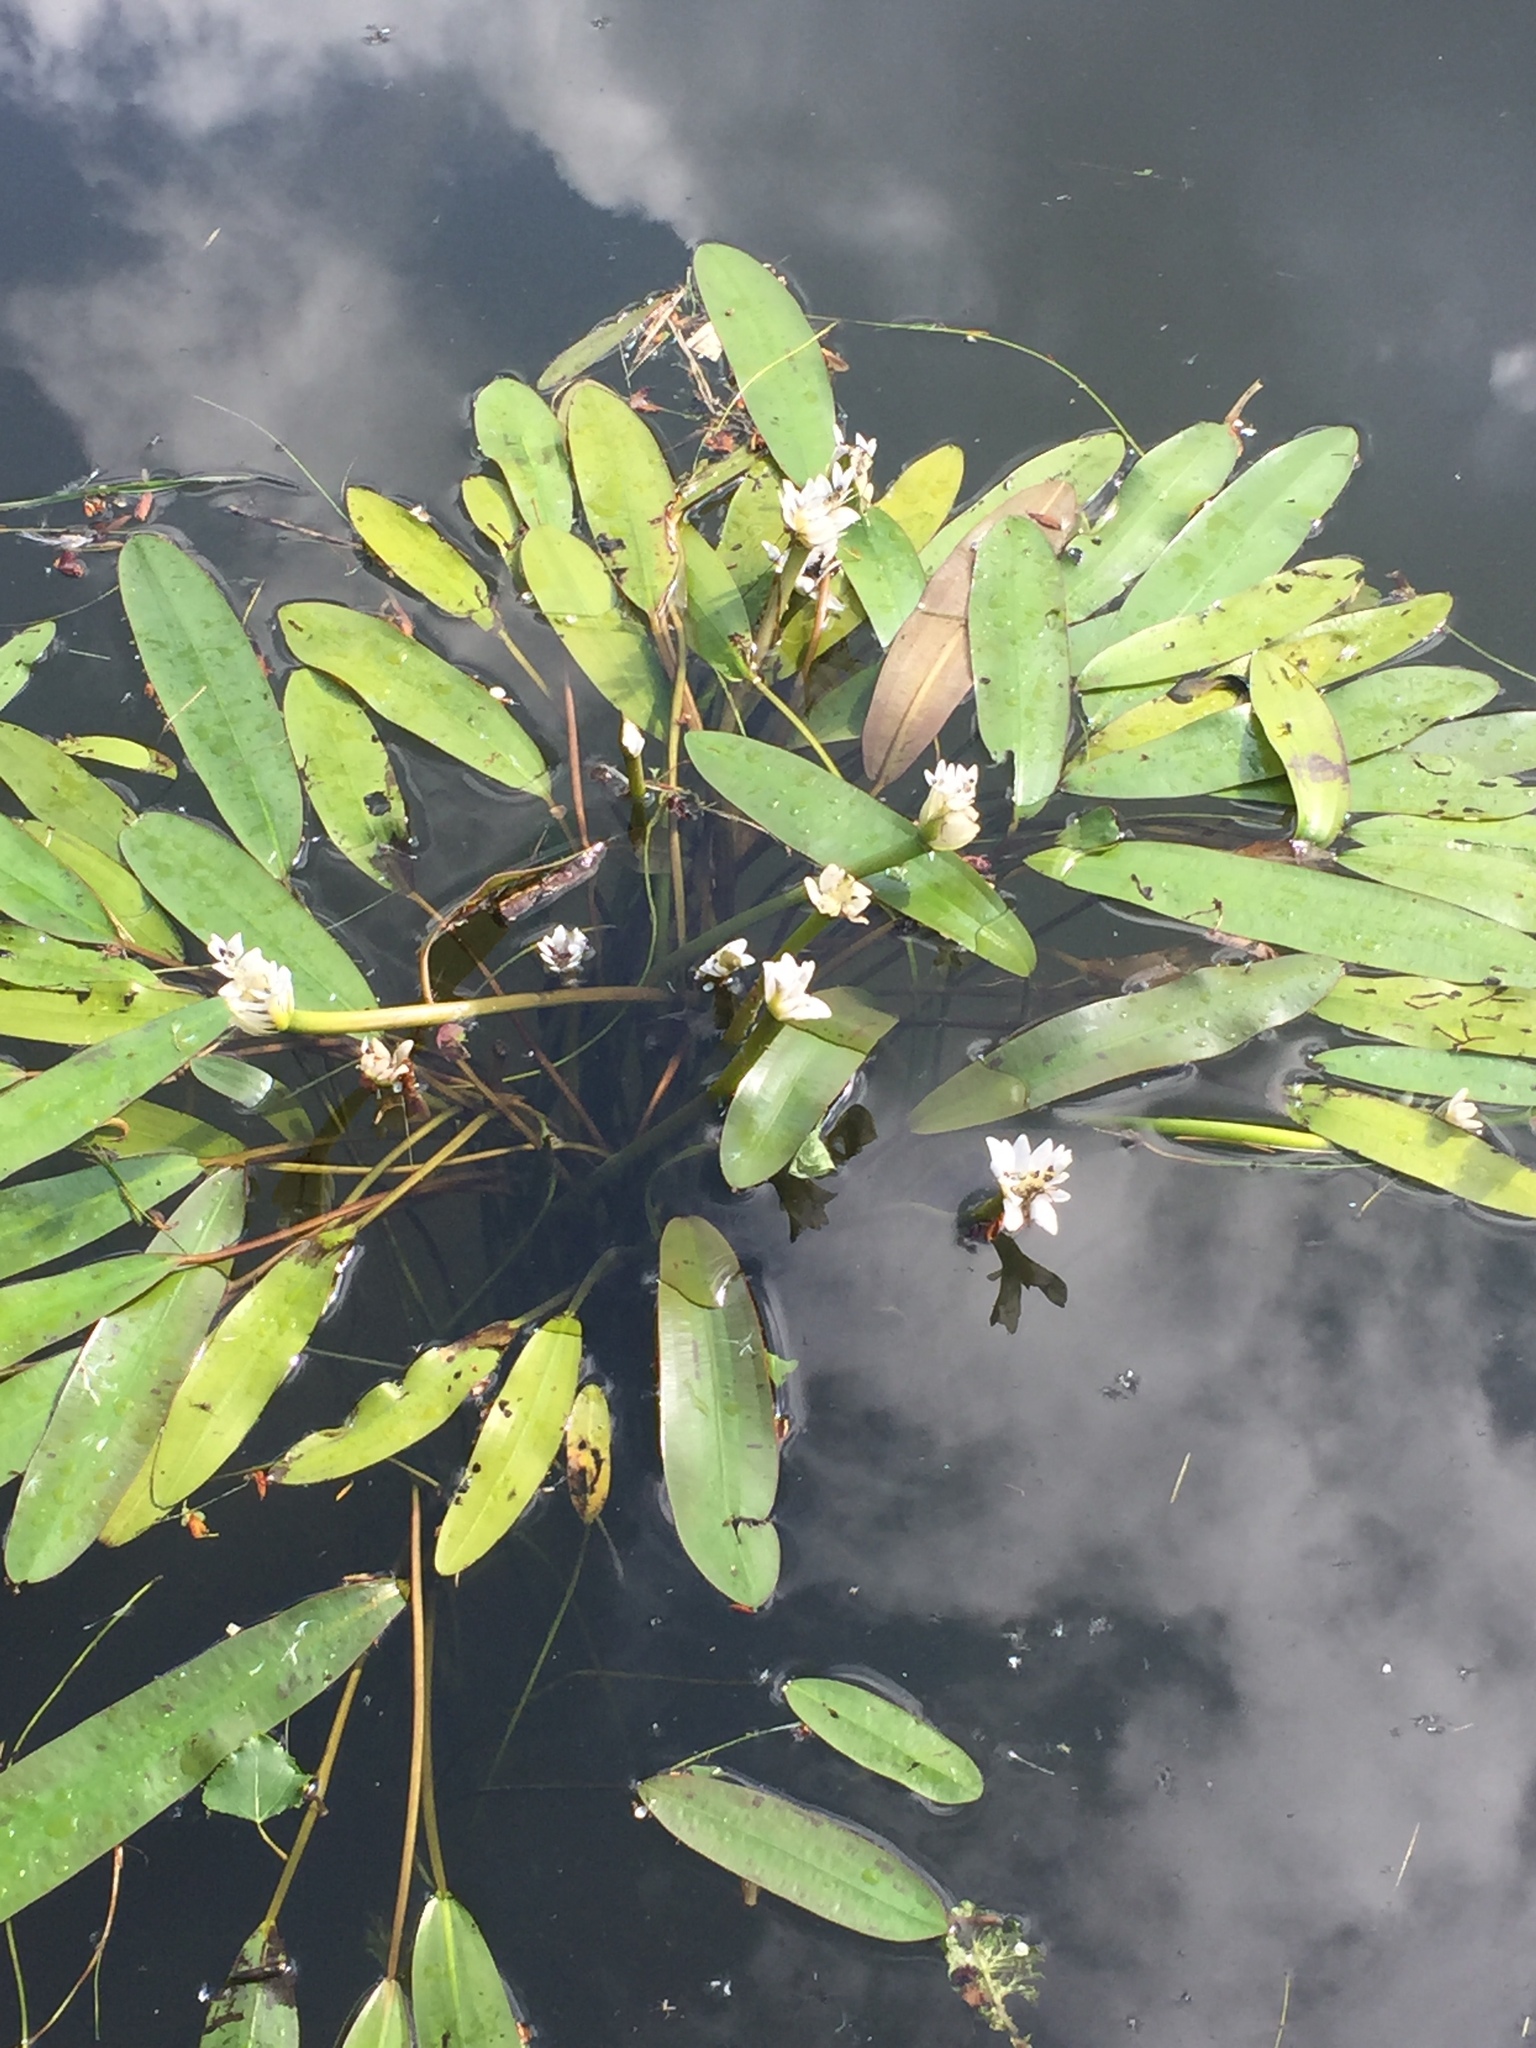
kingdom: Plantae
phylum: Tracheophyta
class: Liliopsida
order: Alismatales
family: Aponogetonaceae
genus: Aponogeton
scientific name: Aponogeton distachyos
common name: Cape-pondweed
